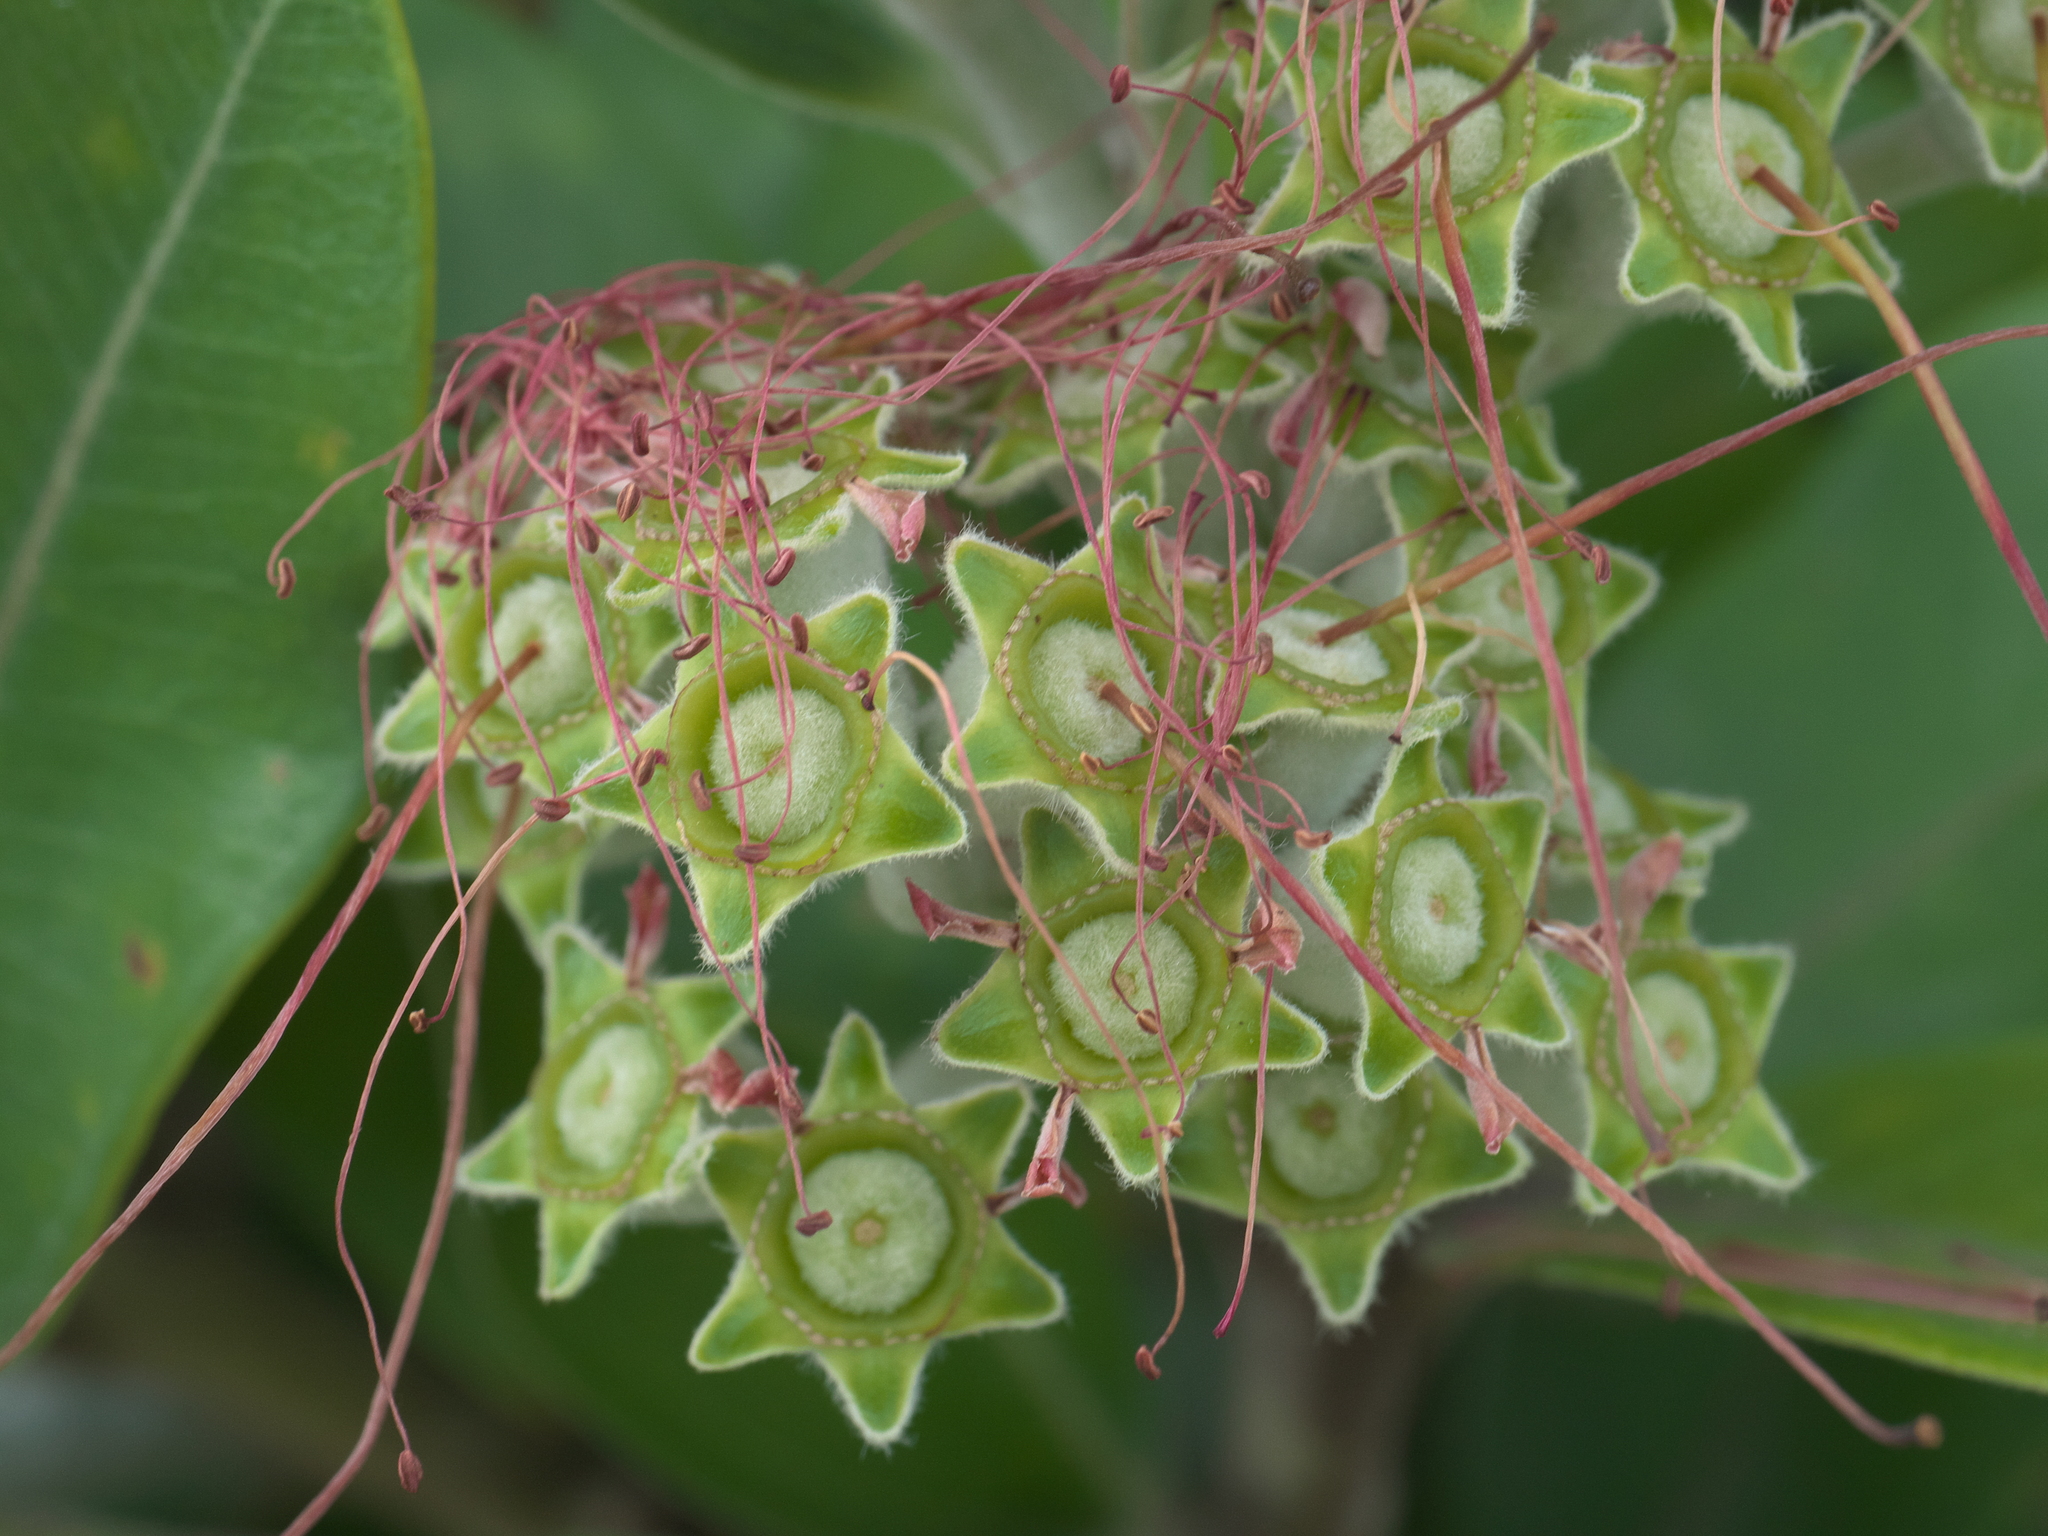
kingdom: Plantae
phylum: Tracheophyta
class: Magnoliopsida
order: Myrtales
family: Myrtaceae
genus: Metrosideros
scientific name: Metrosideros excelsa
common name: New zealand christmastree
